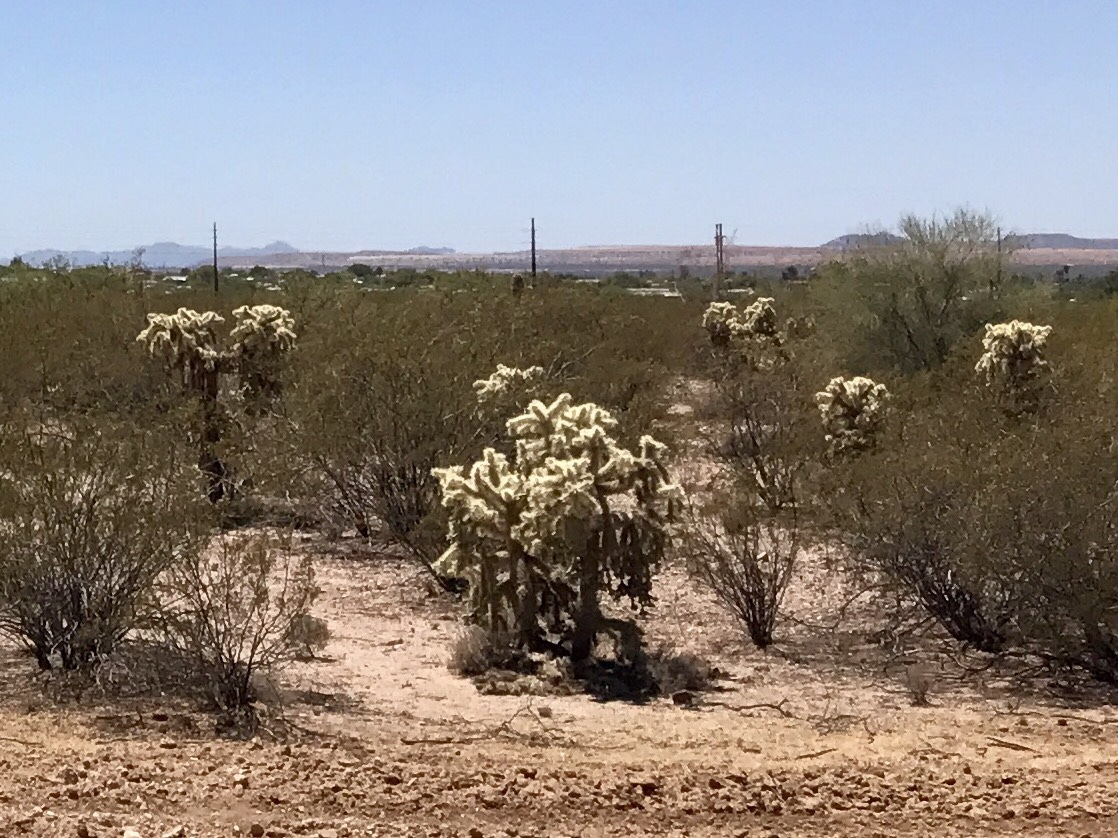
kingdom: Plantae
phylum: Tracheophyta
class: Magnoliopsida
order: Caryophyllales
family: Cactaceae
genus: Cylindropuntia
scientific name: Cylindropuntia fulgida
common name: Jumping cholla
